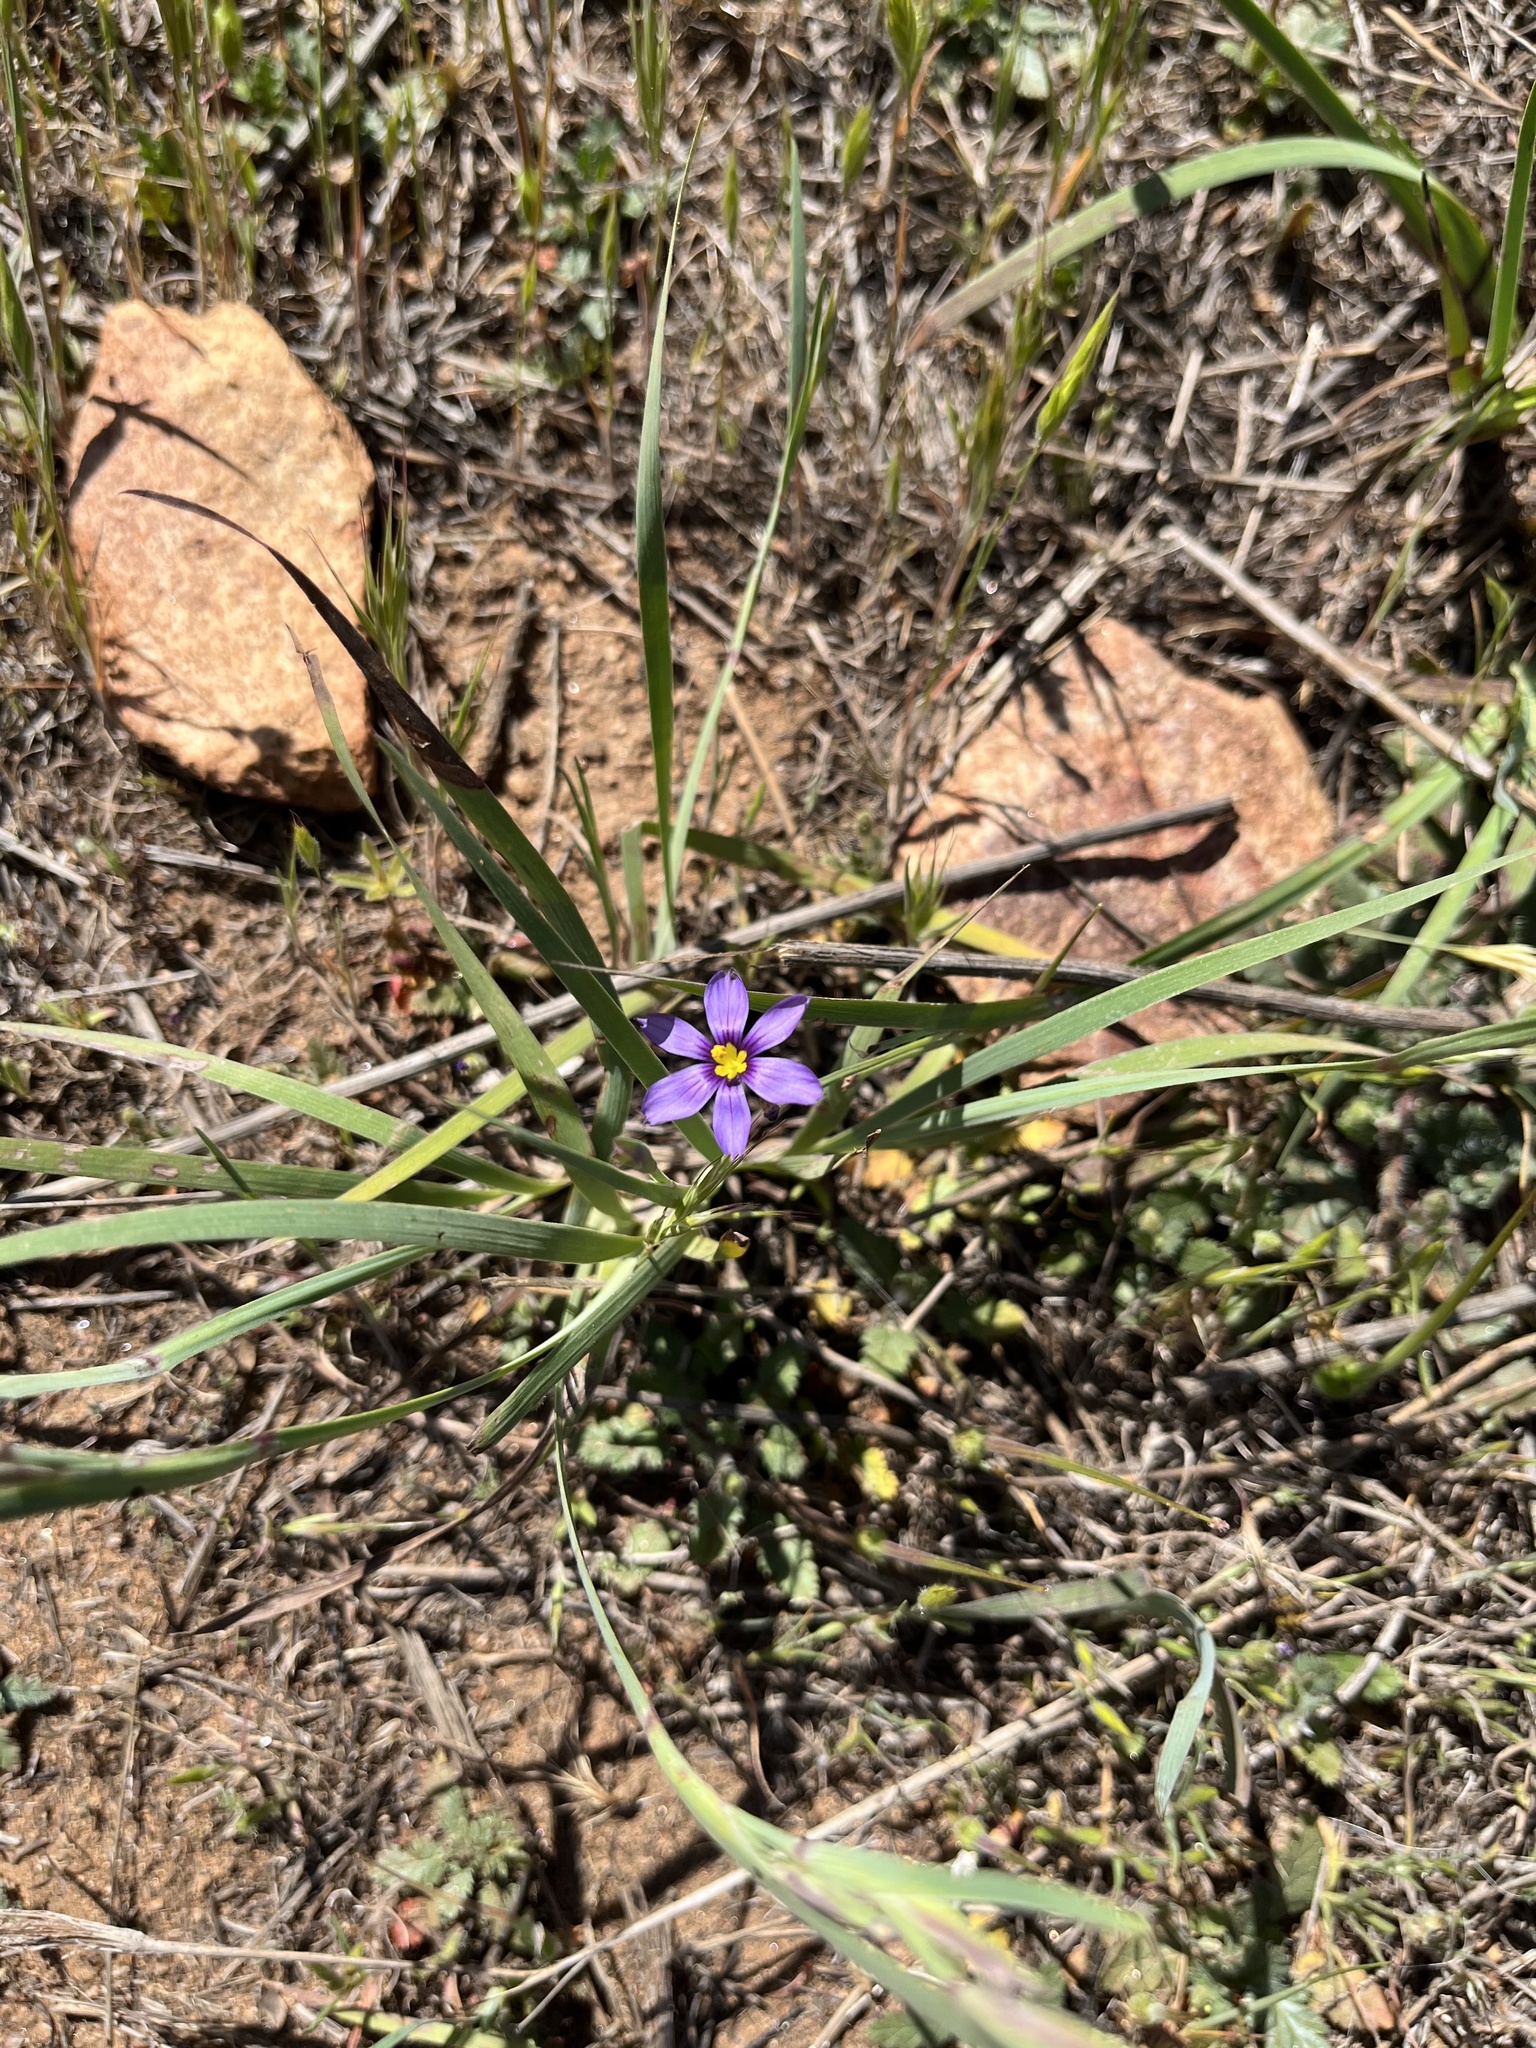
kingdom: Plantae
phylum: Tracheophyta
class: Liliopsida
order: Asparagales
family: Iridaceae
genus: Sisyrinchium
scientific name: Sisyrinchium bellum
